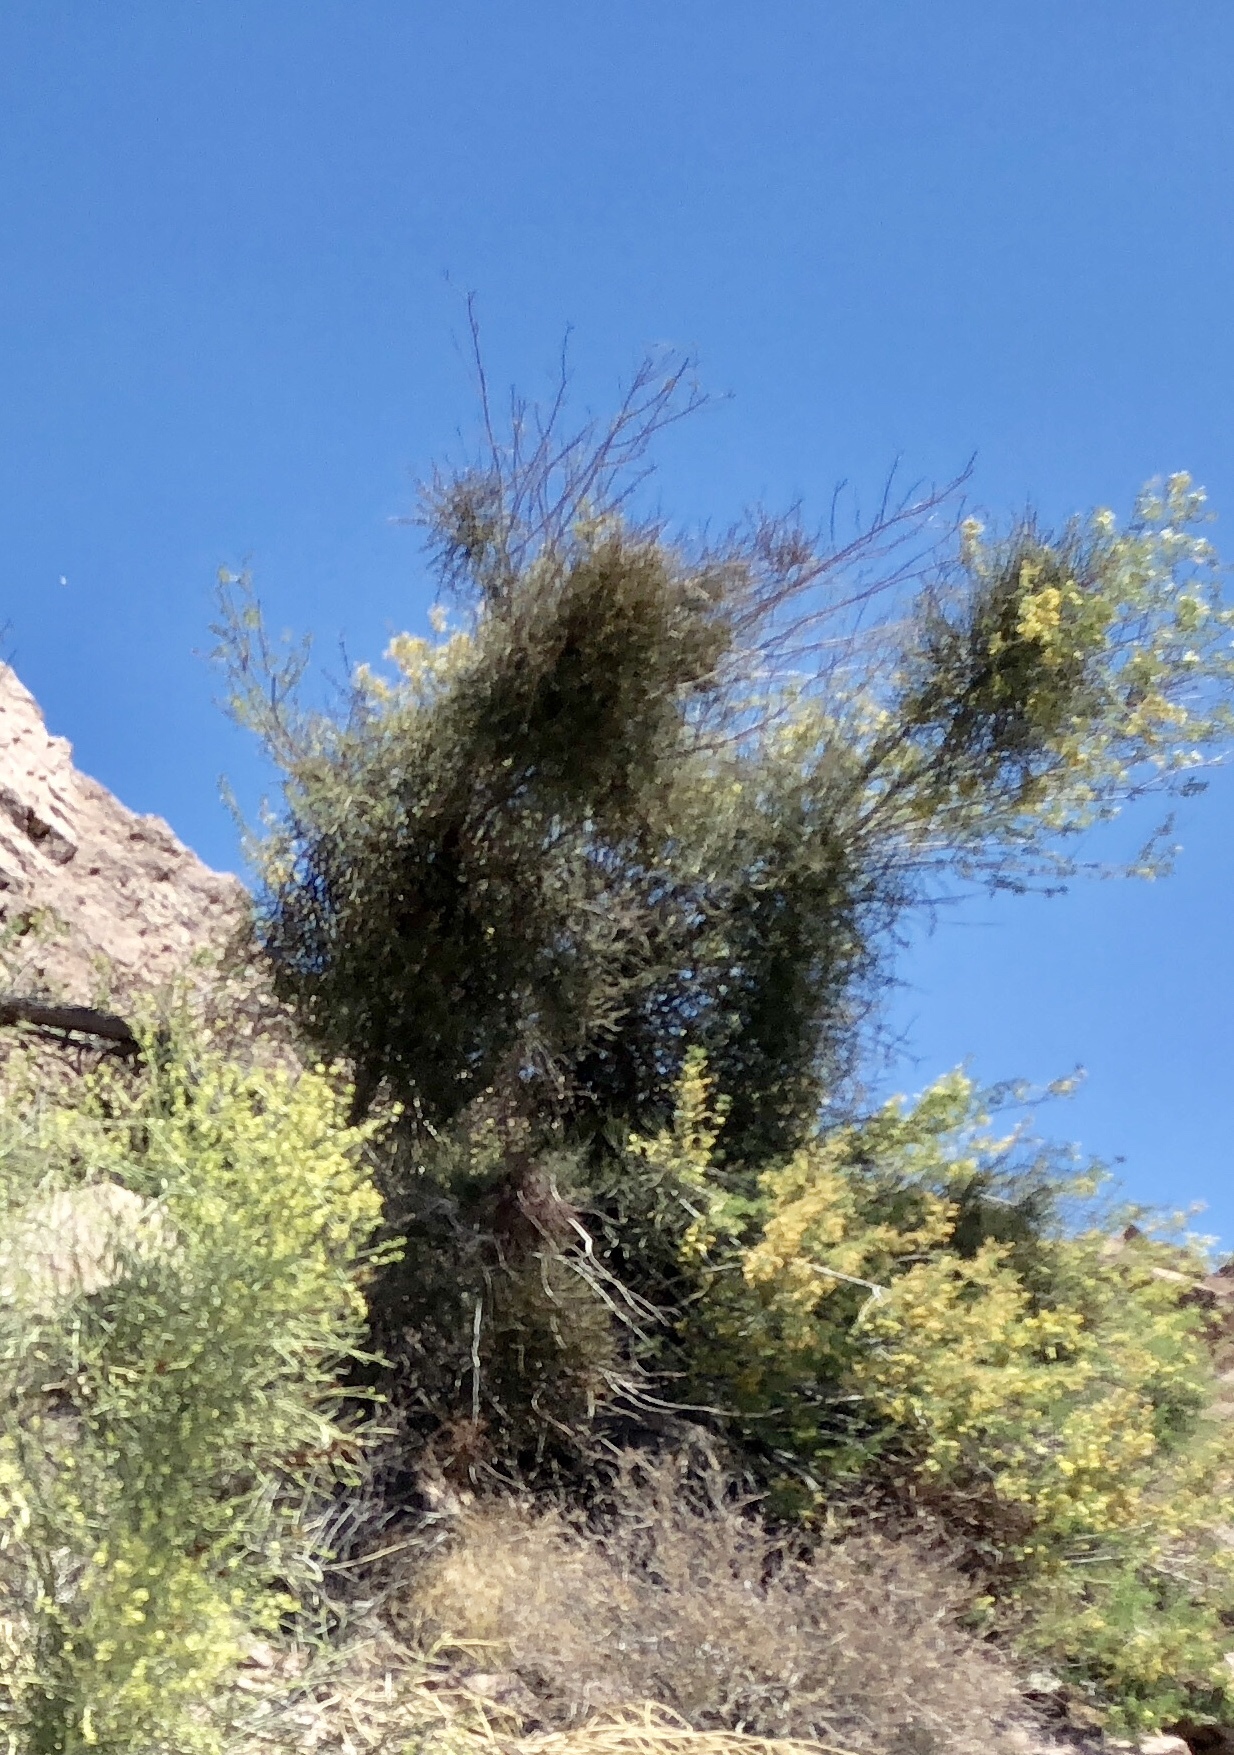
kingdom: Plantae
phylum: Tracheophyta
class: Magnoliopsida
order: Santalales
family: Viscaceae
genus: Phoradendron
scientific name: Phoradendron californicum
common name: Acacia mistletoe
